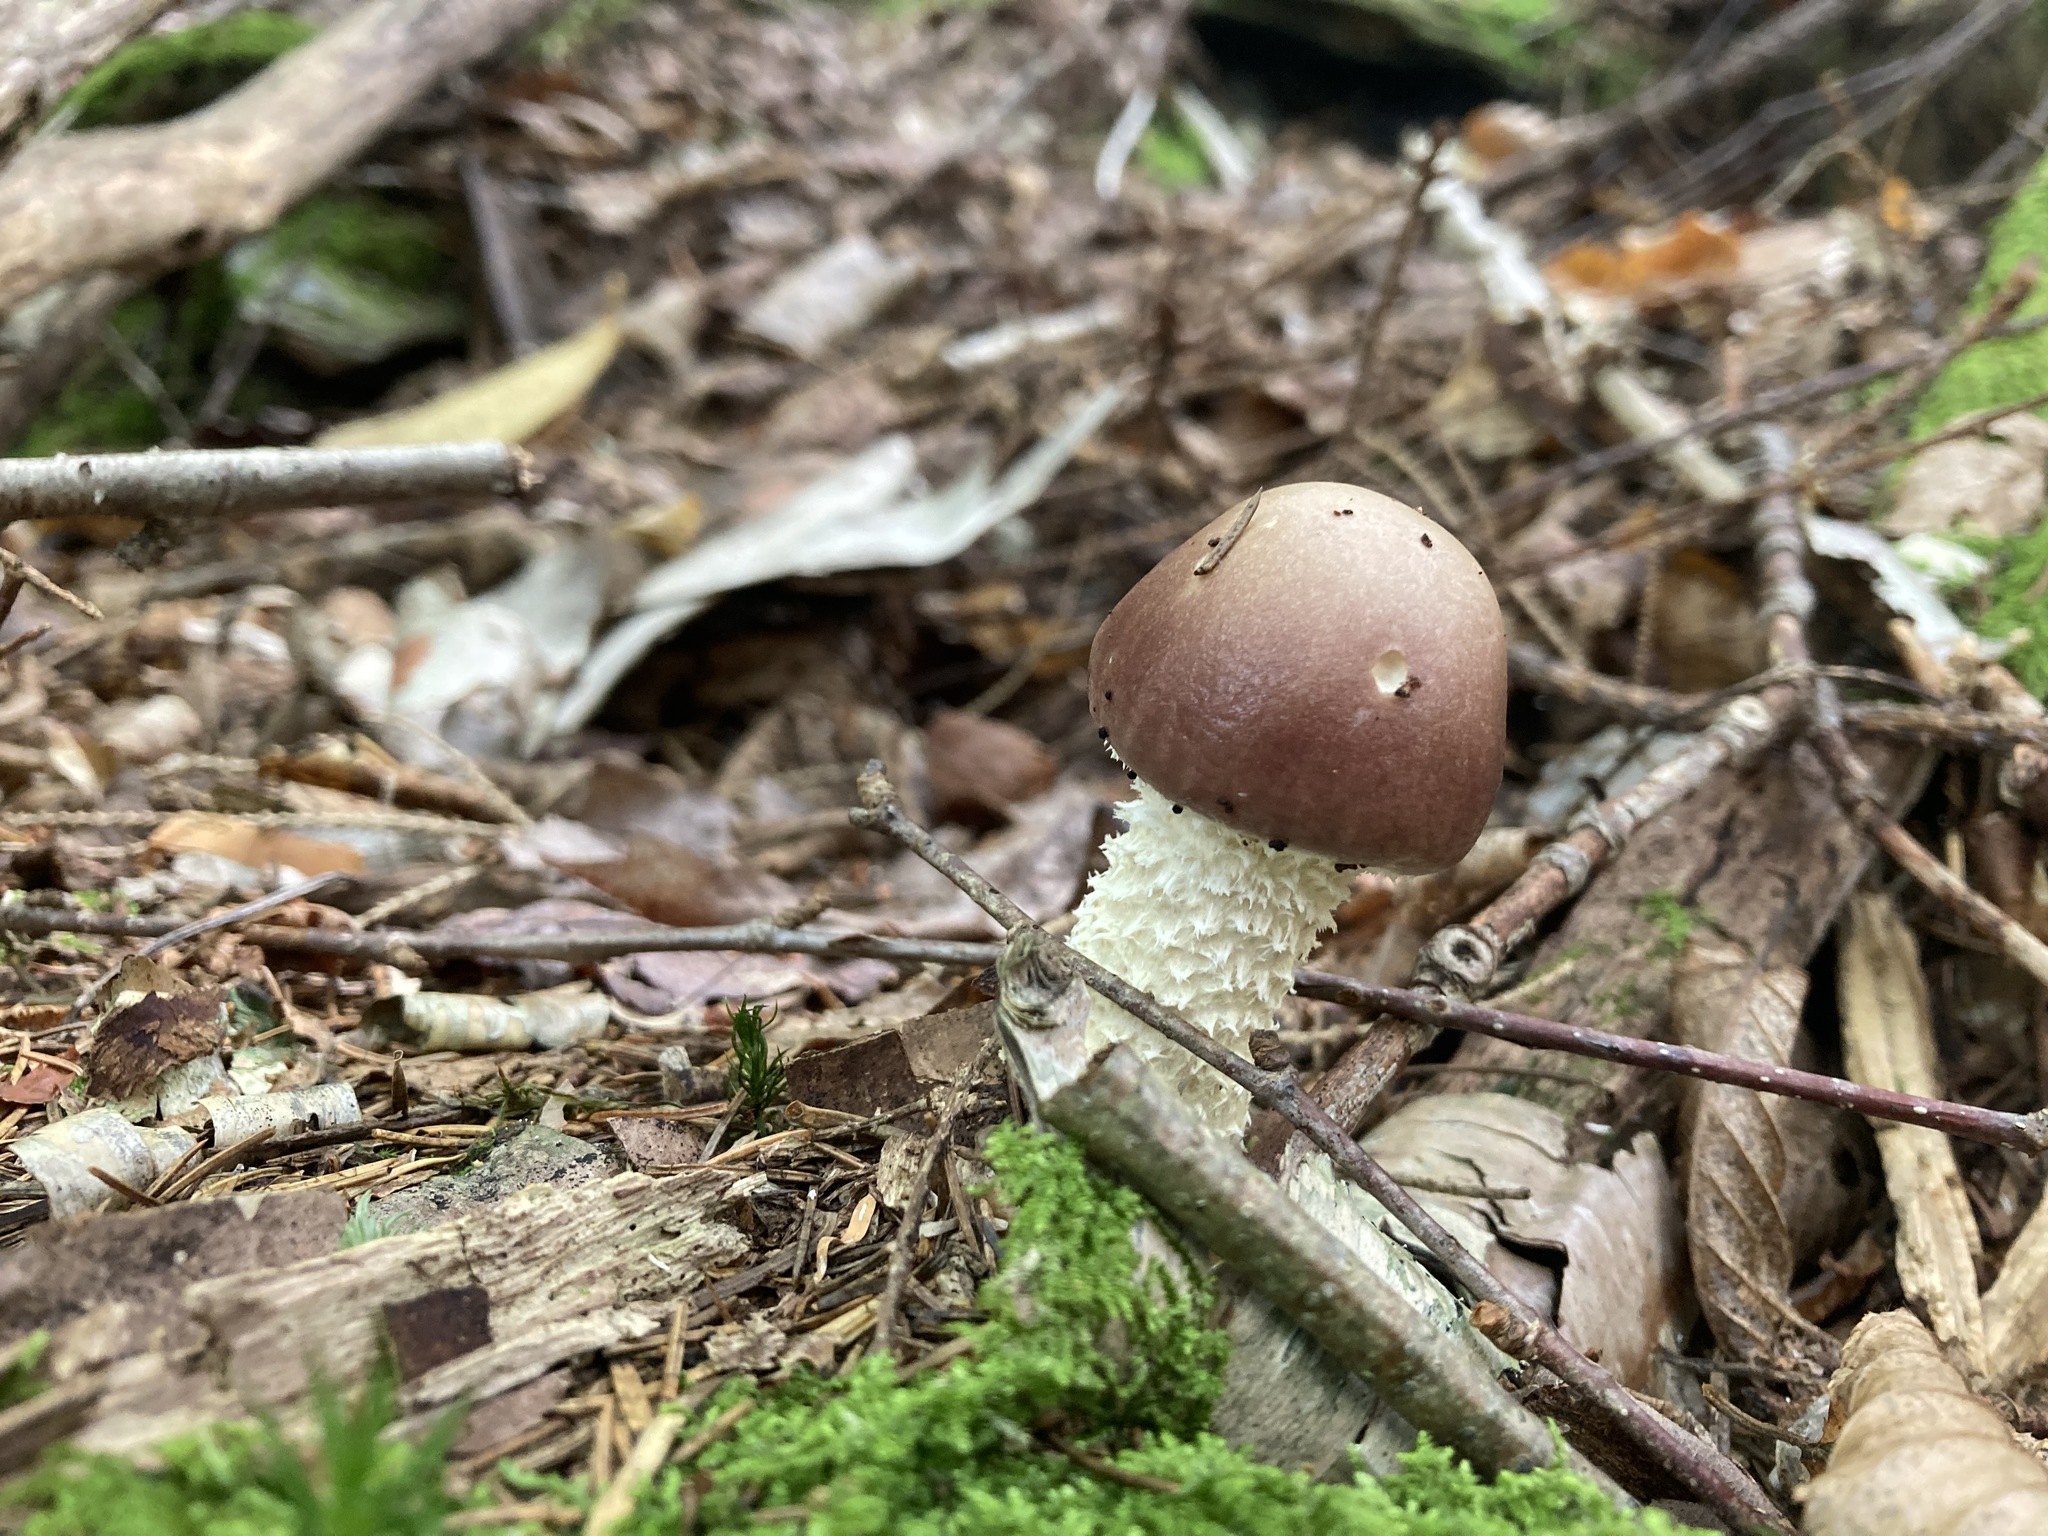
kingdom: Fungi
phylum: Basidiomycota
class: Agaricomycetes
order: Agaricales
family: Strophariaceae
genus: Stropharia
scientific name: Stropharia hornemannii
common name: Conifer roundhead
